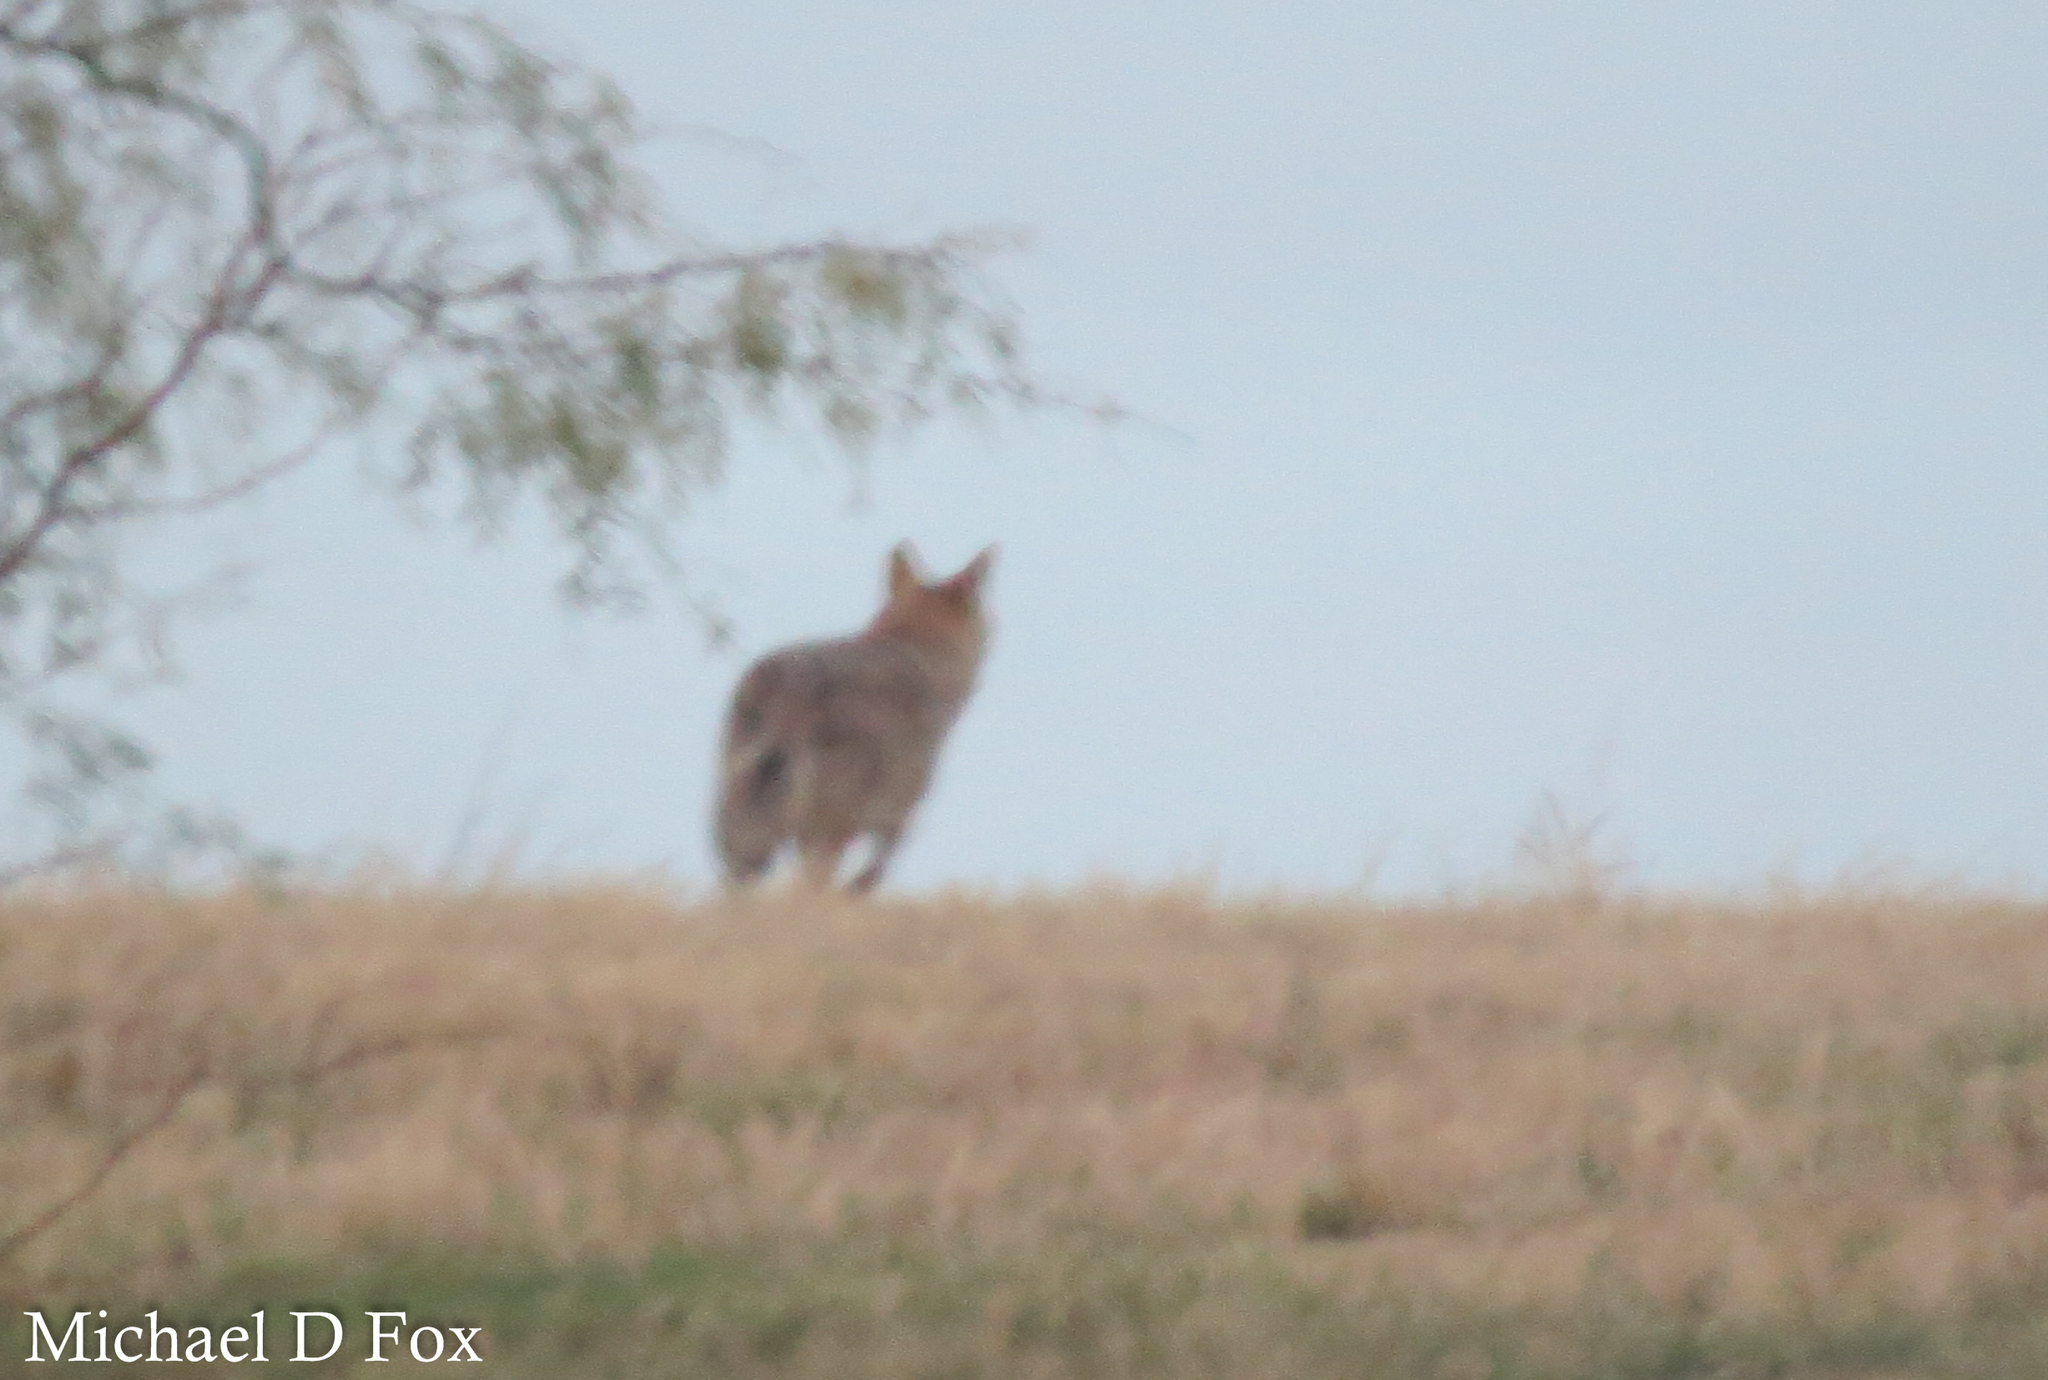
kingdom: Animalia
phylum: Chordata
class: Mammalia
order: Carnivora
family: Canidae
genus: Canis
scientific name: Canis latrans
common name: Coyote
